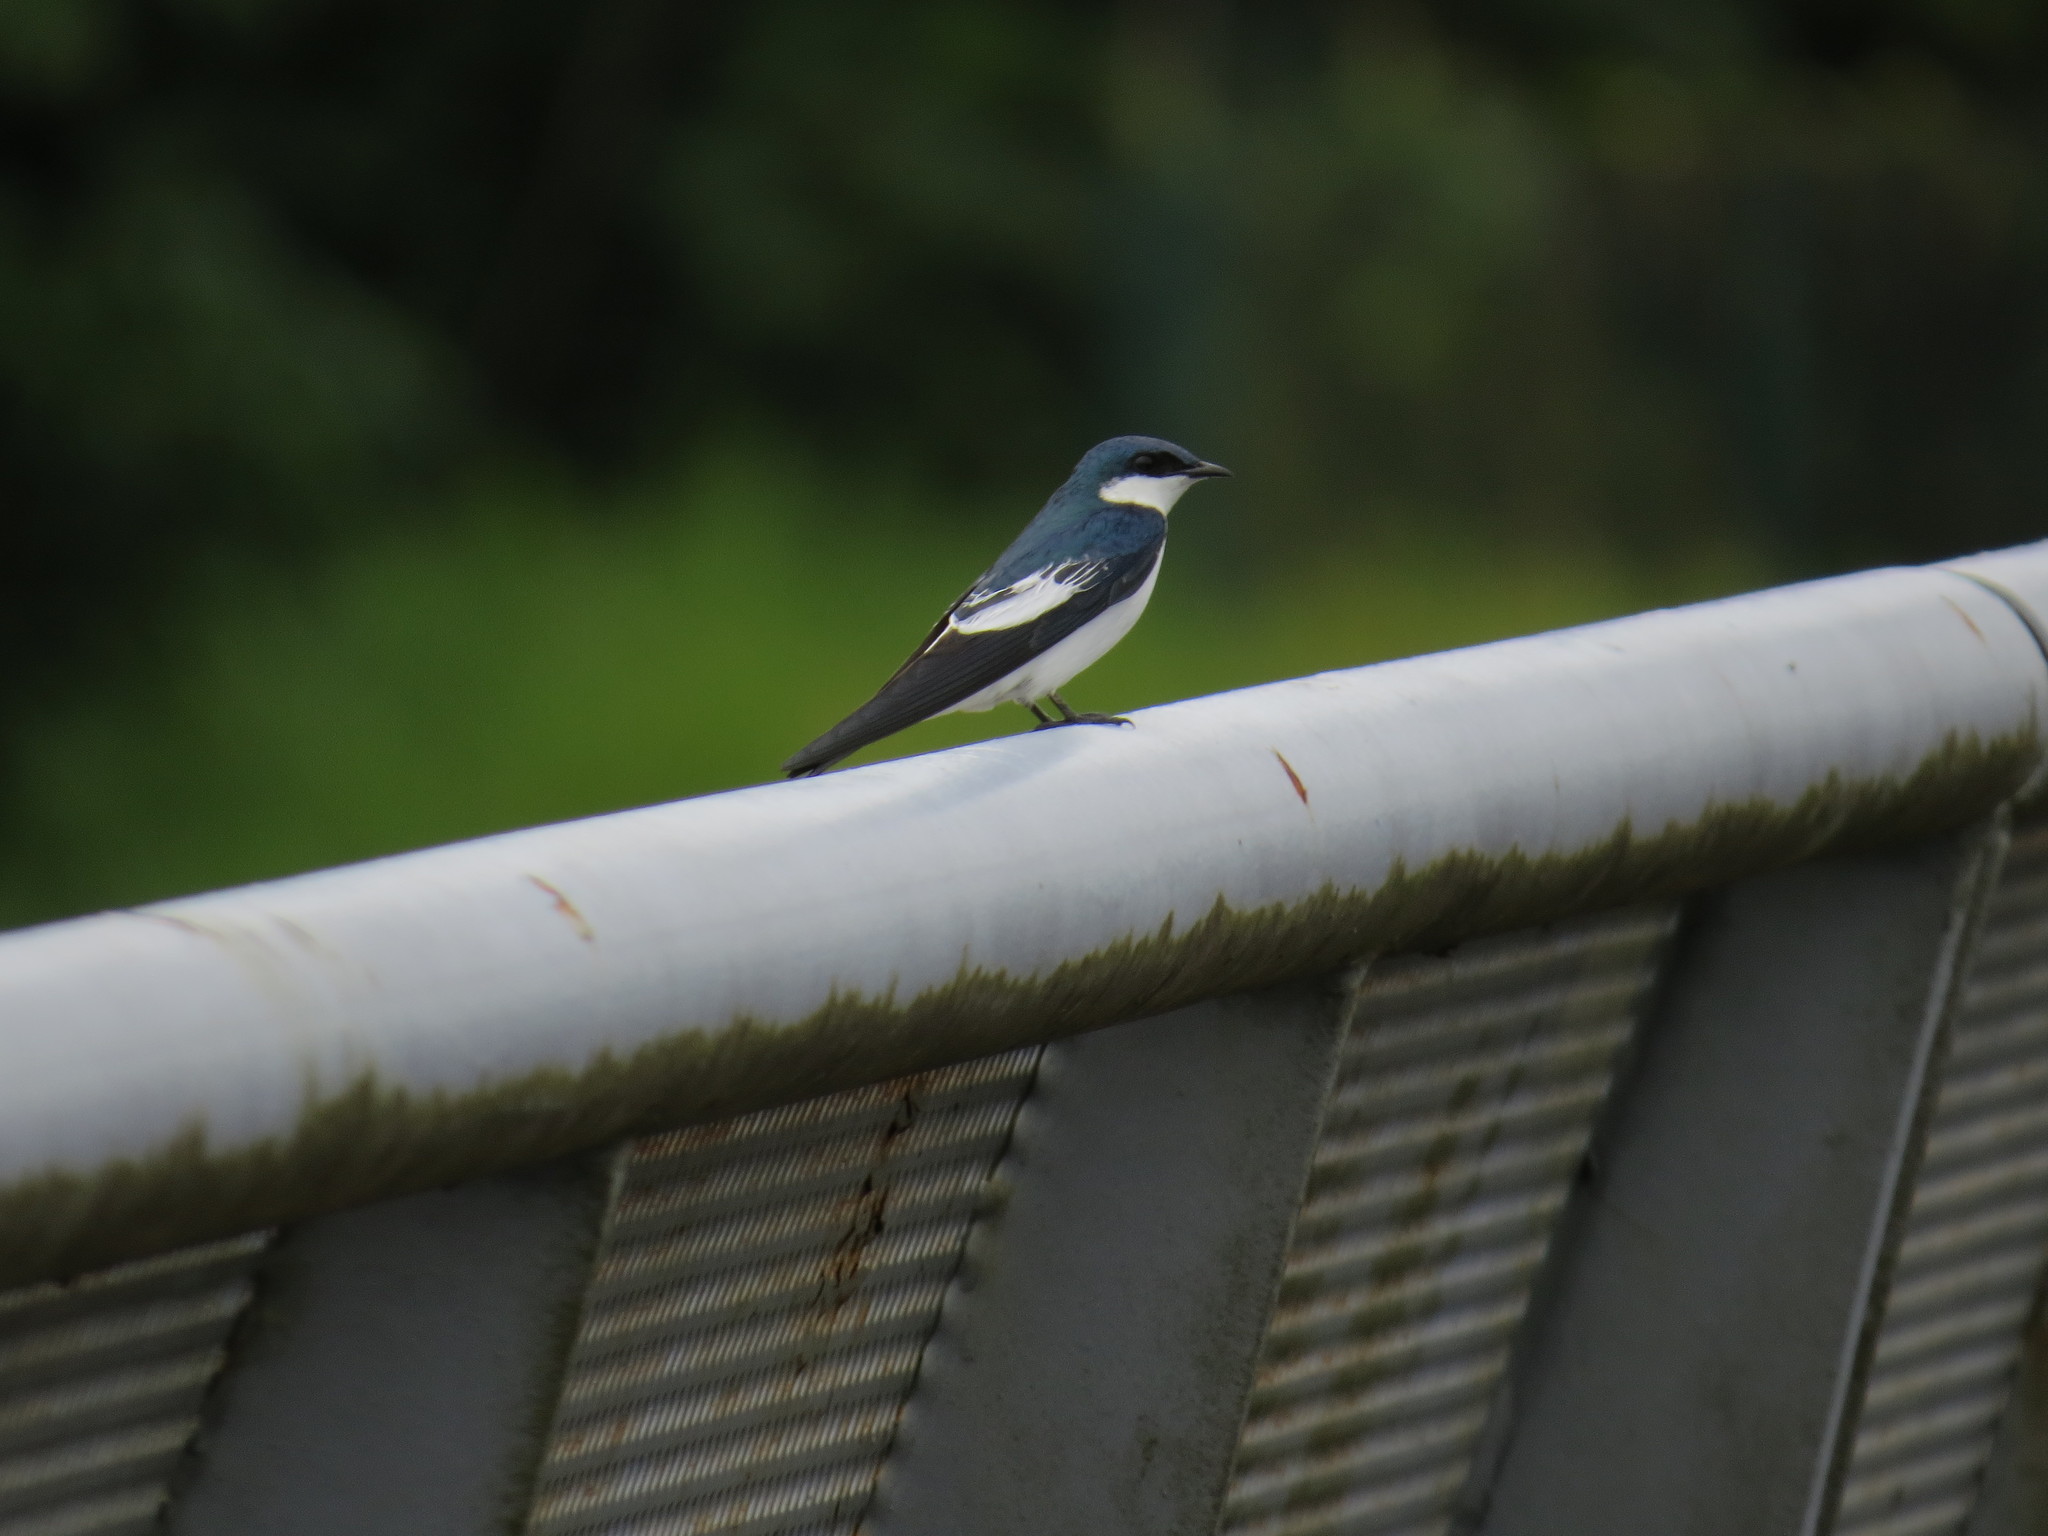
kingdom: Animalia
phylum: Chordata
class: Aves
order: Passeriformes
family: Hirundinidae
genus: Tachycineta
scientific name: Tachycineta albiventer
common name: White-winged swallow
